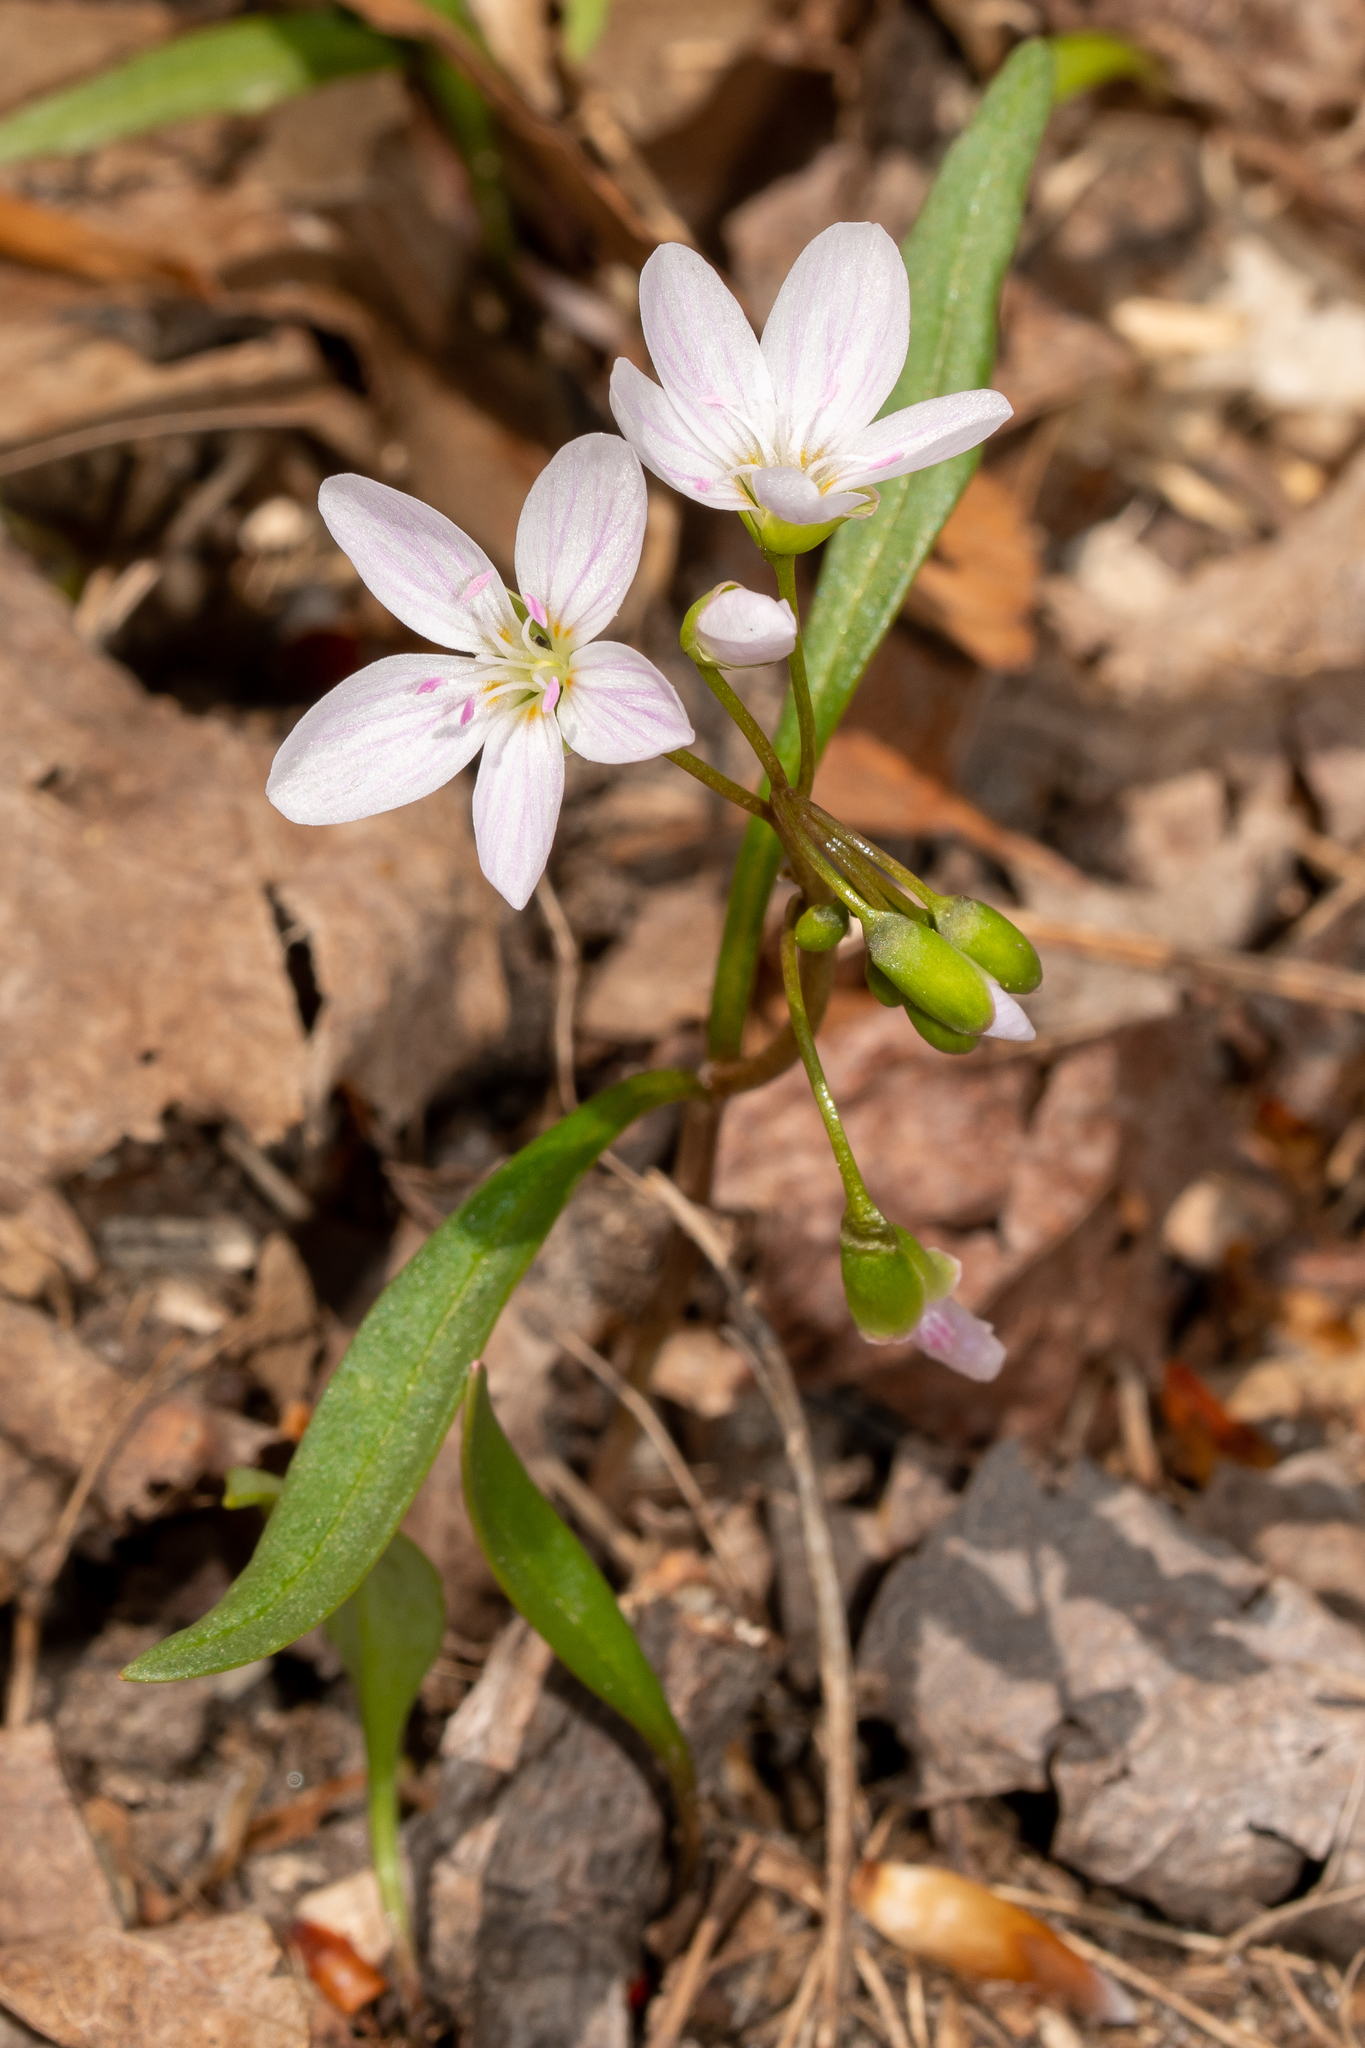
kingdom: Plantae
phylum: Tracheophyta
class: Magnoliopsida
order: Caryophyllales
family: Montiaceae
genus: Claytonia
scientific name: Claytonia virginica
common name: Virginia springbeauty
